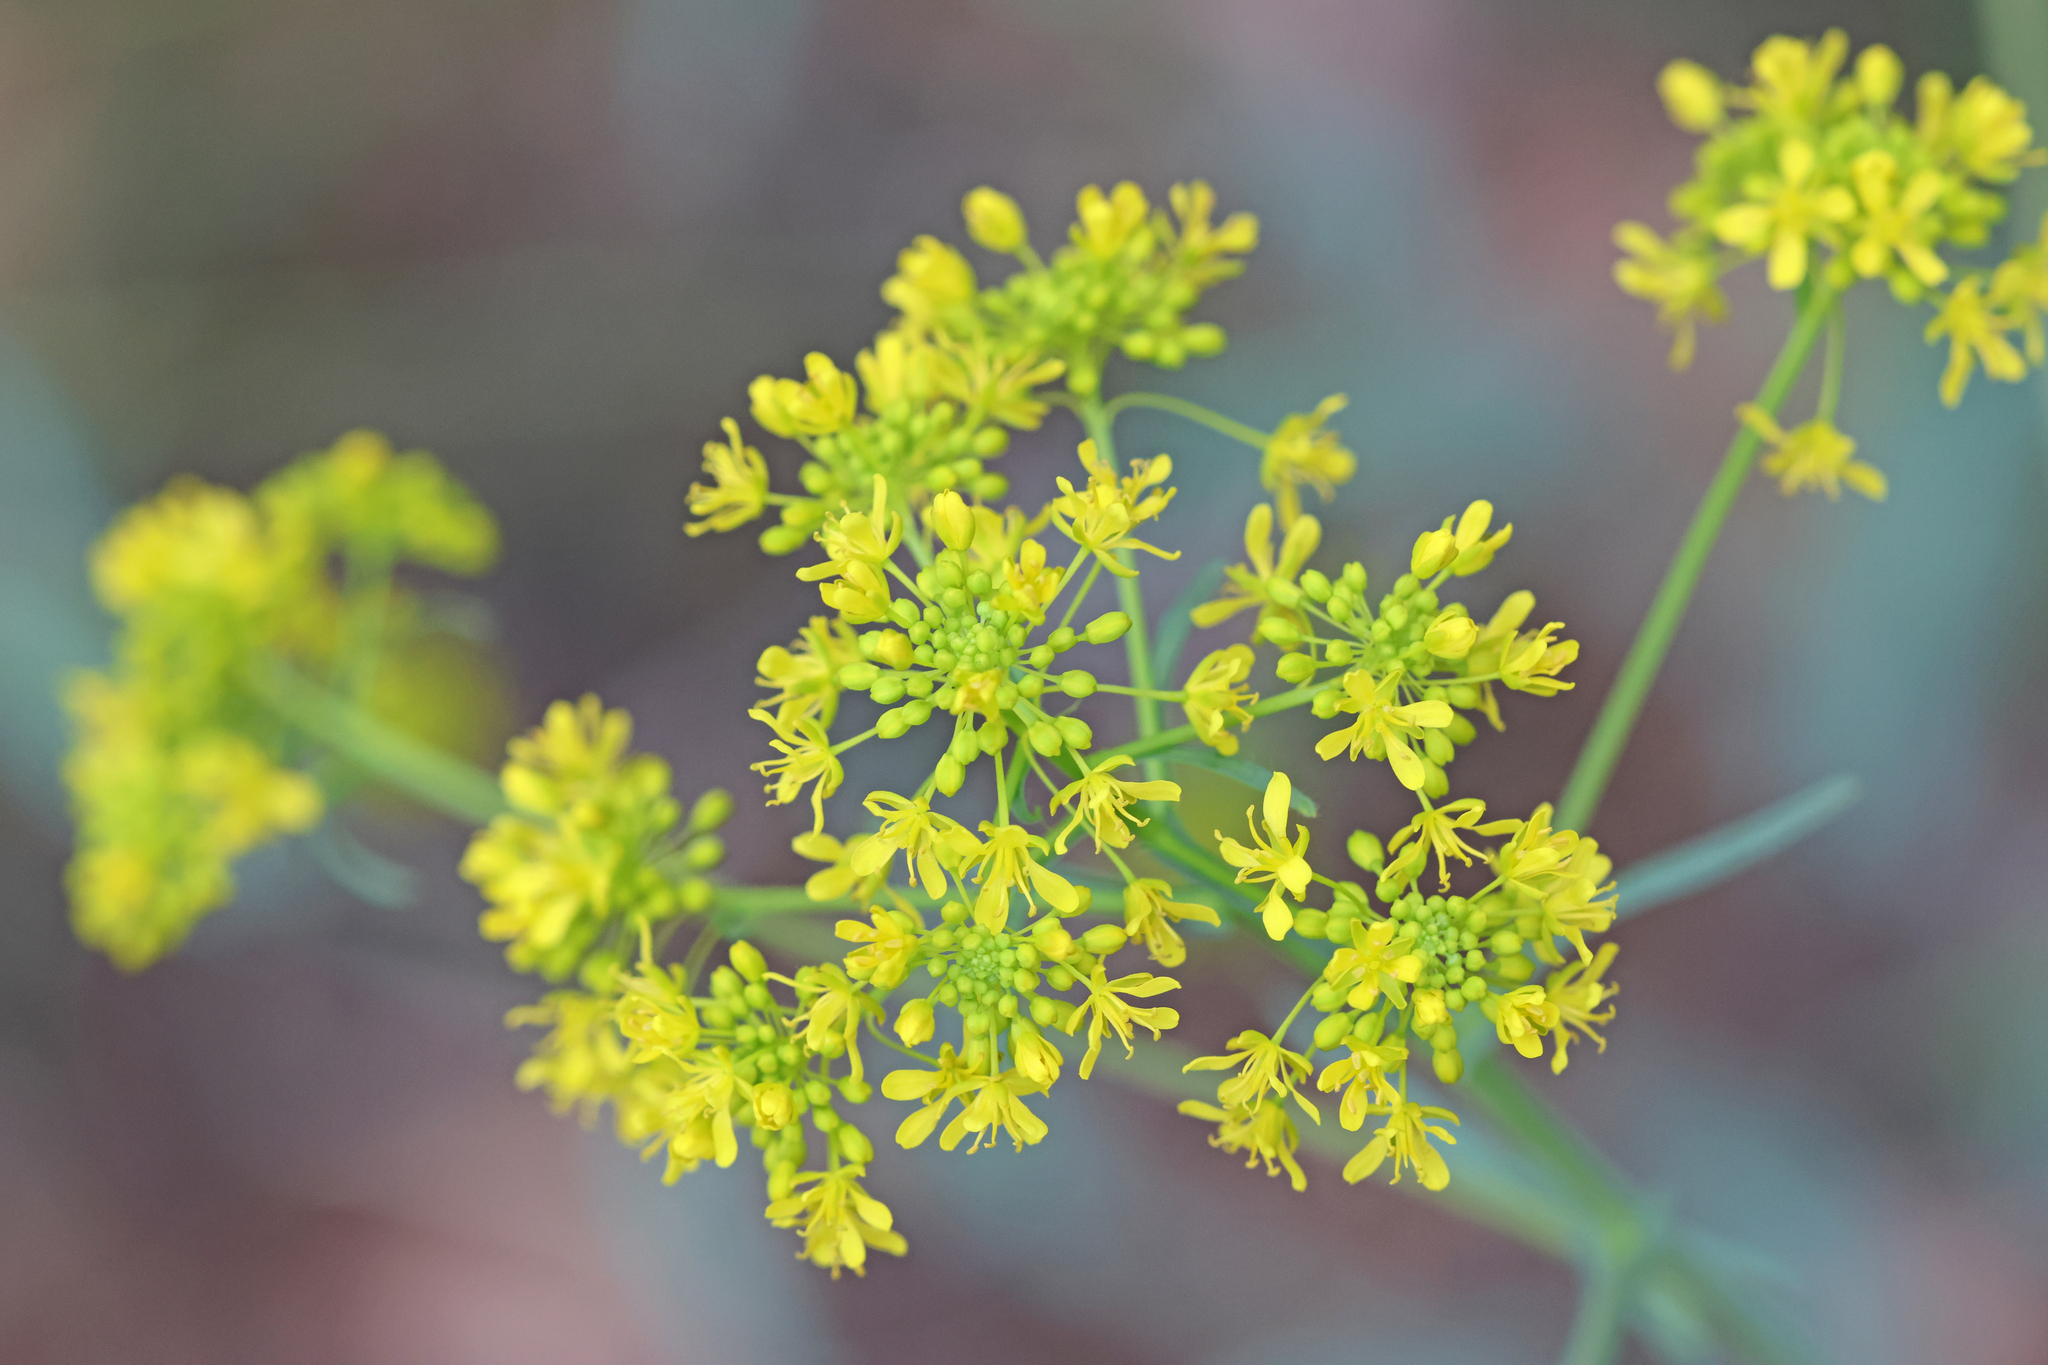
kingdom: Plantae
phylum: Tracheophyta
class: Magnoliopsida
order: Brassicales
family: Brassicaceae
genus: Isatis
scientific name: Isatis tinctoria
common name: Woad
